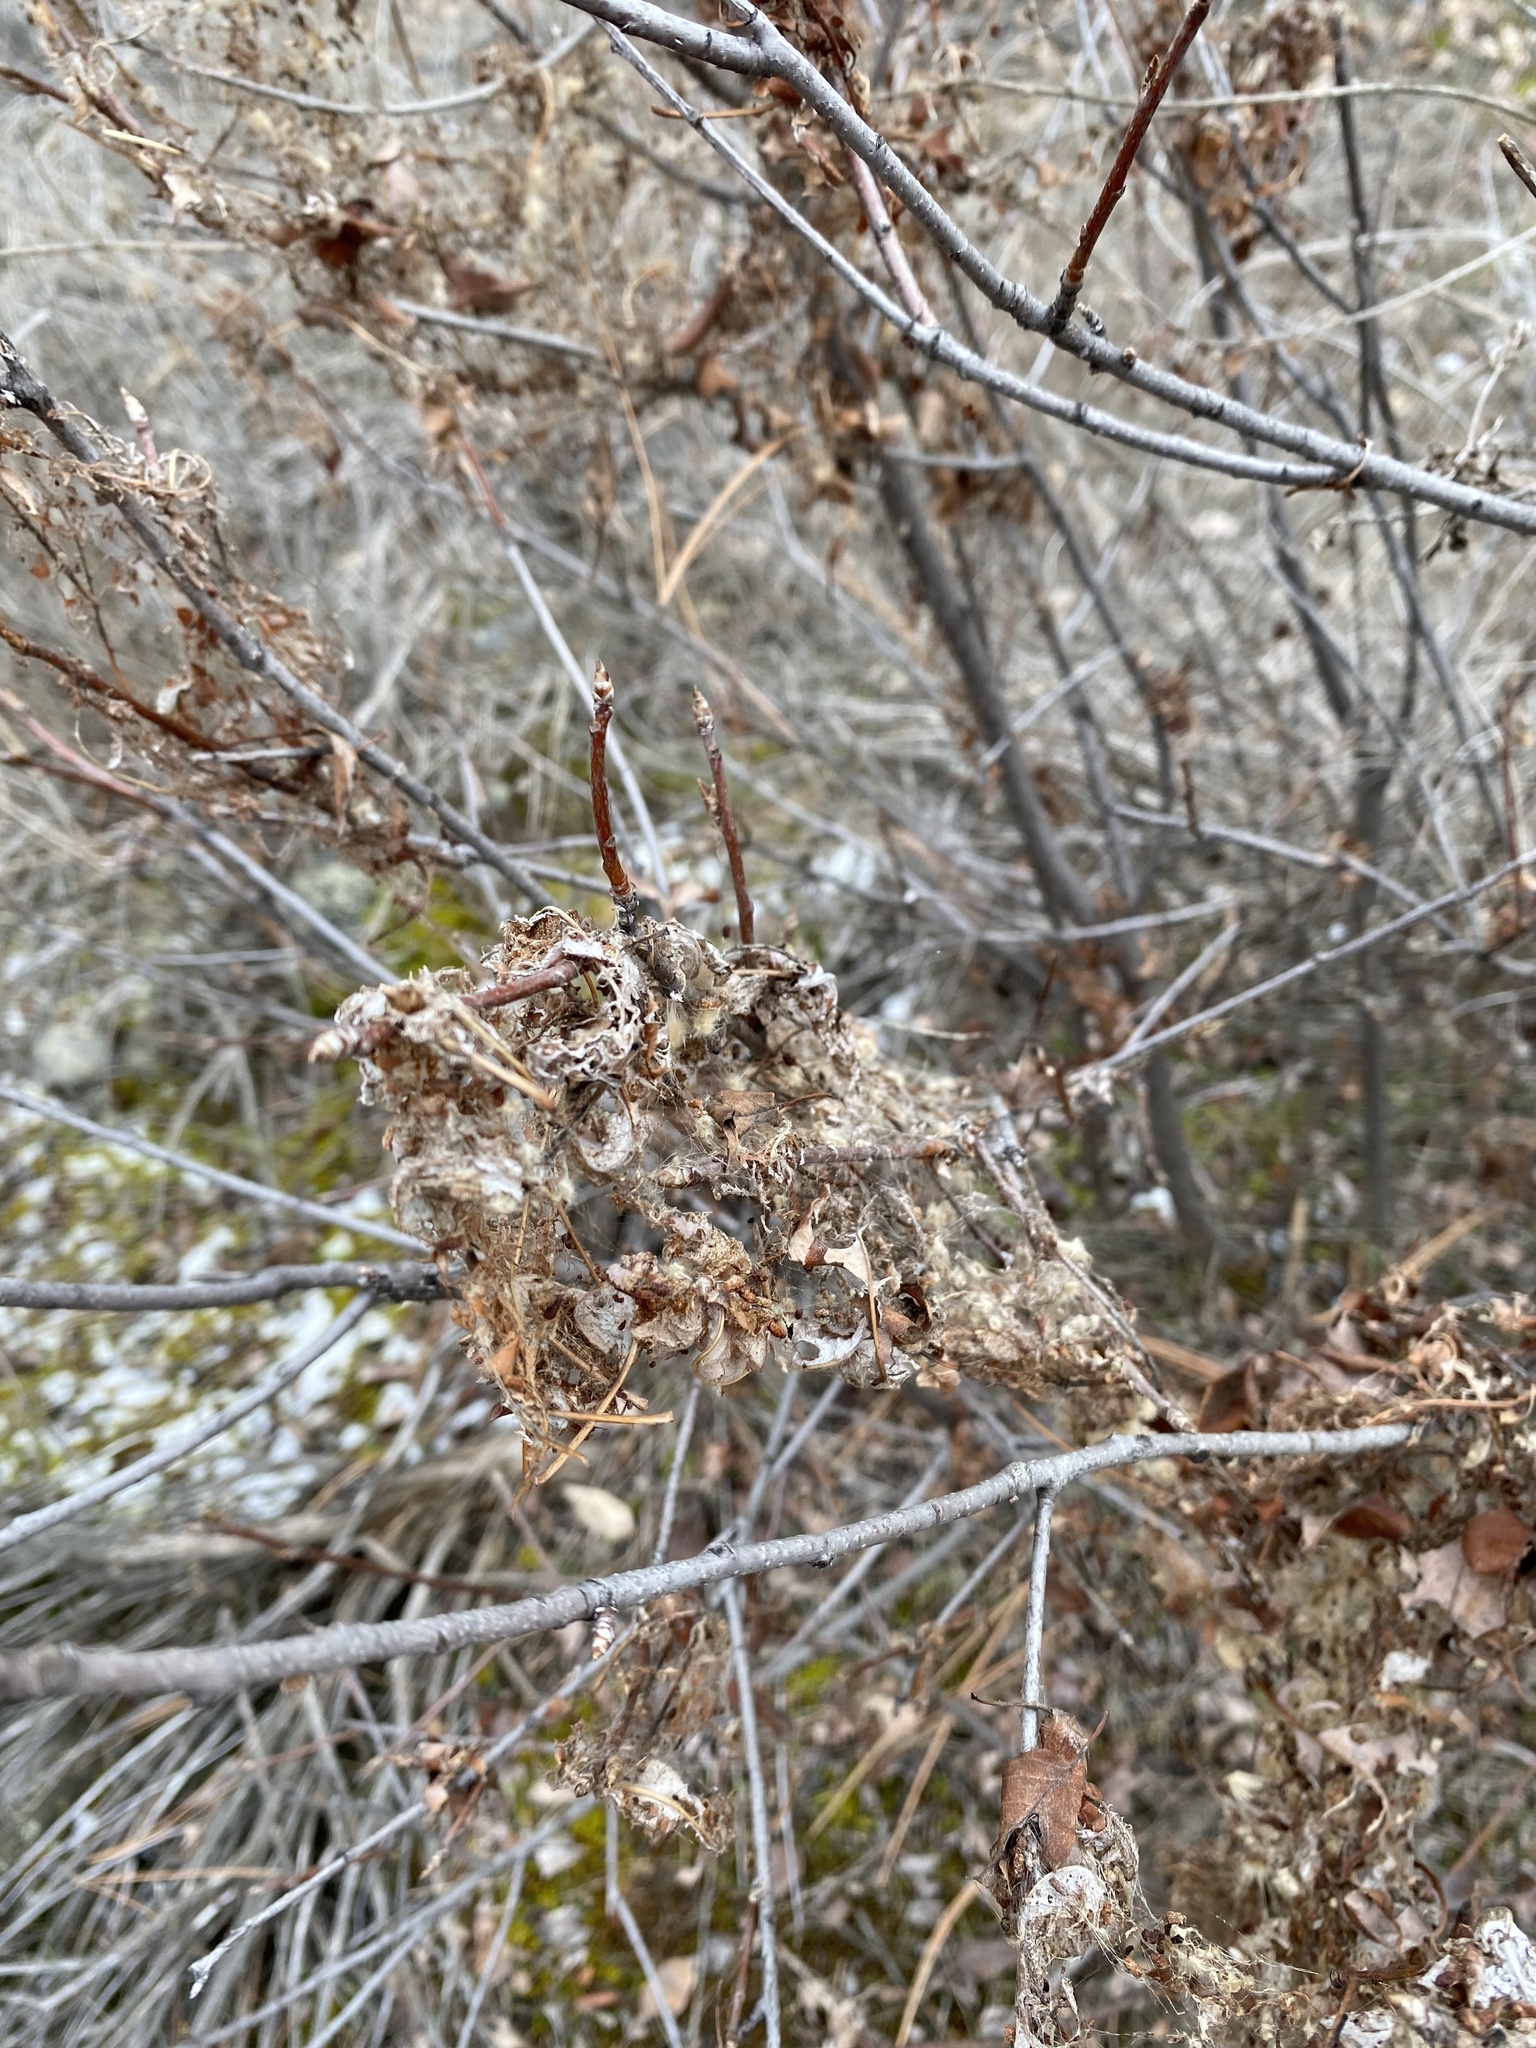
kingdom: Animalia
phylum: Arthropoda
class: Insecta
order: Lepidoptera
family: Erebidae
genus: Hyphantria
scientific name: Hyphantria cunea
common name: American white moth
